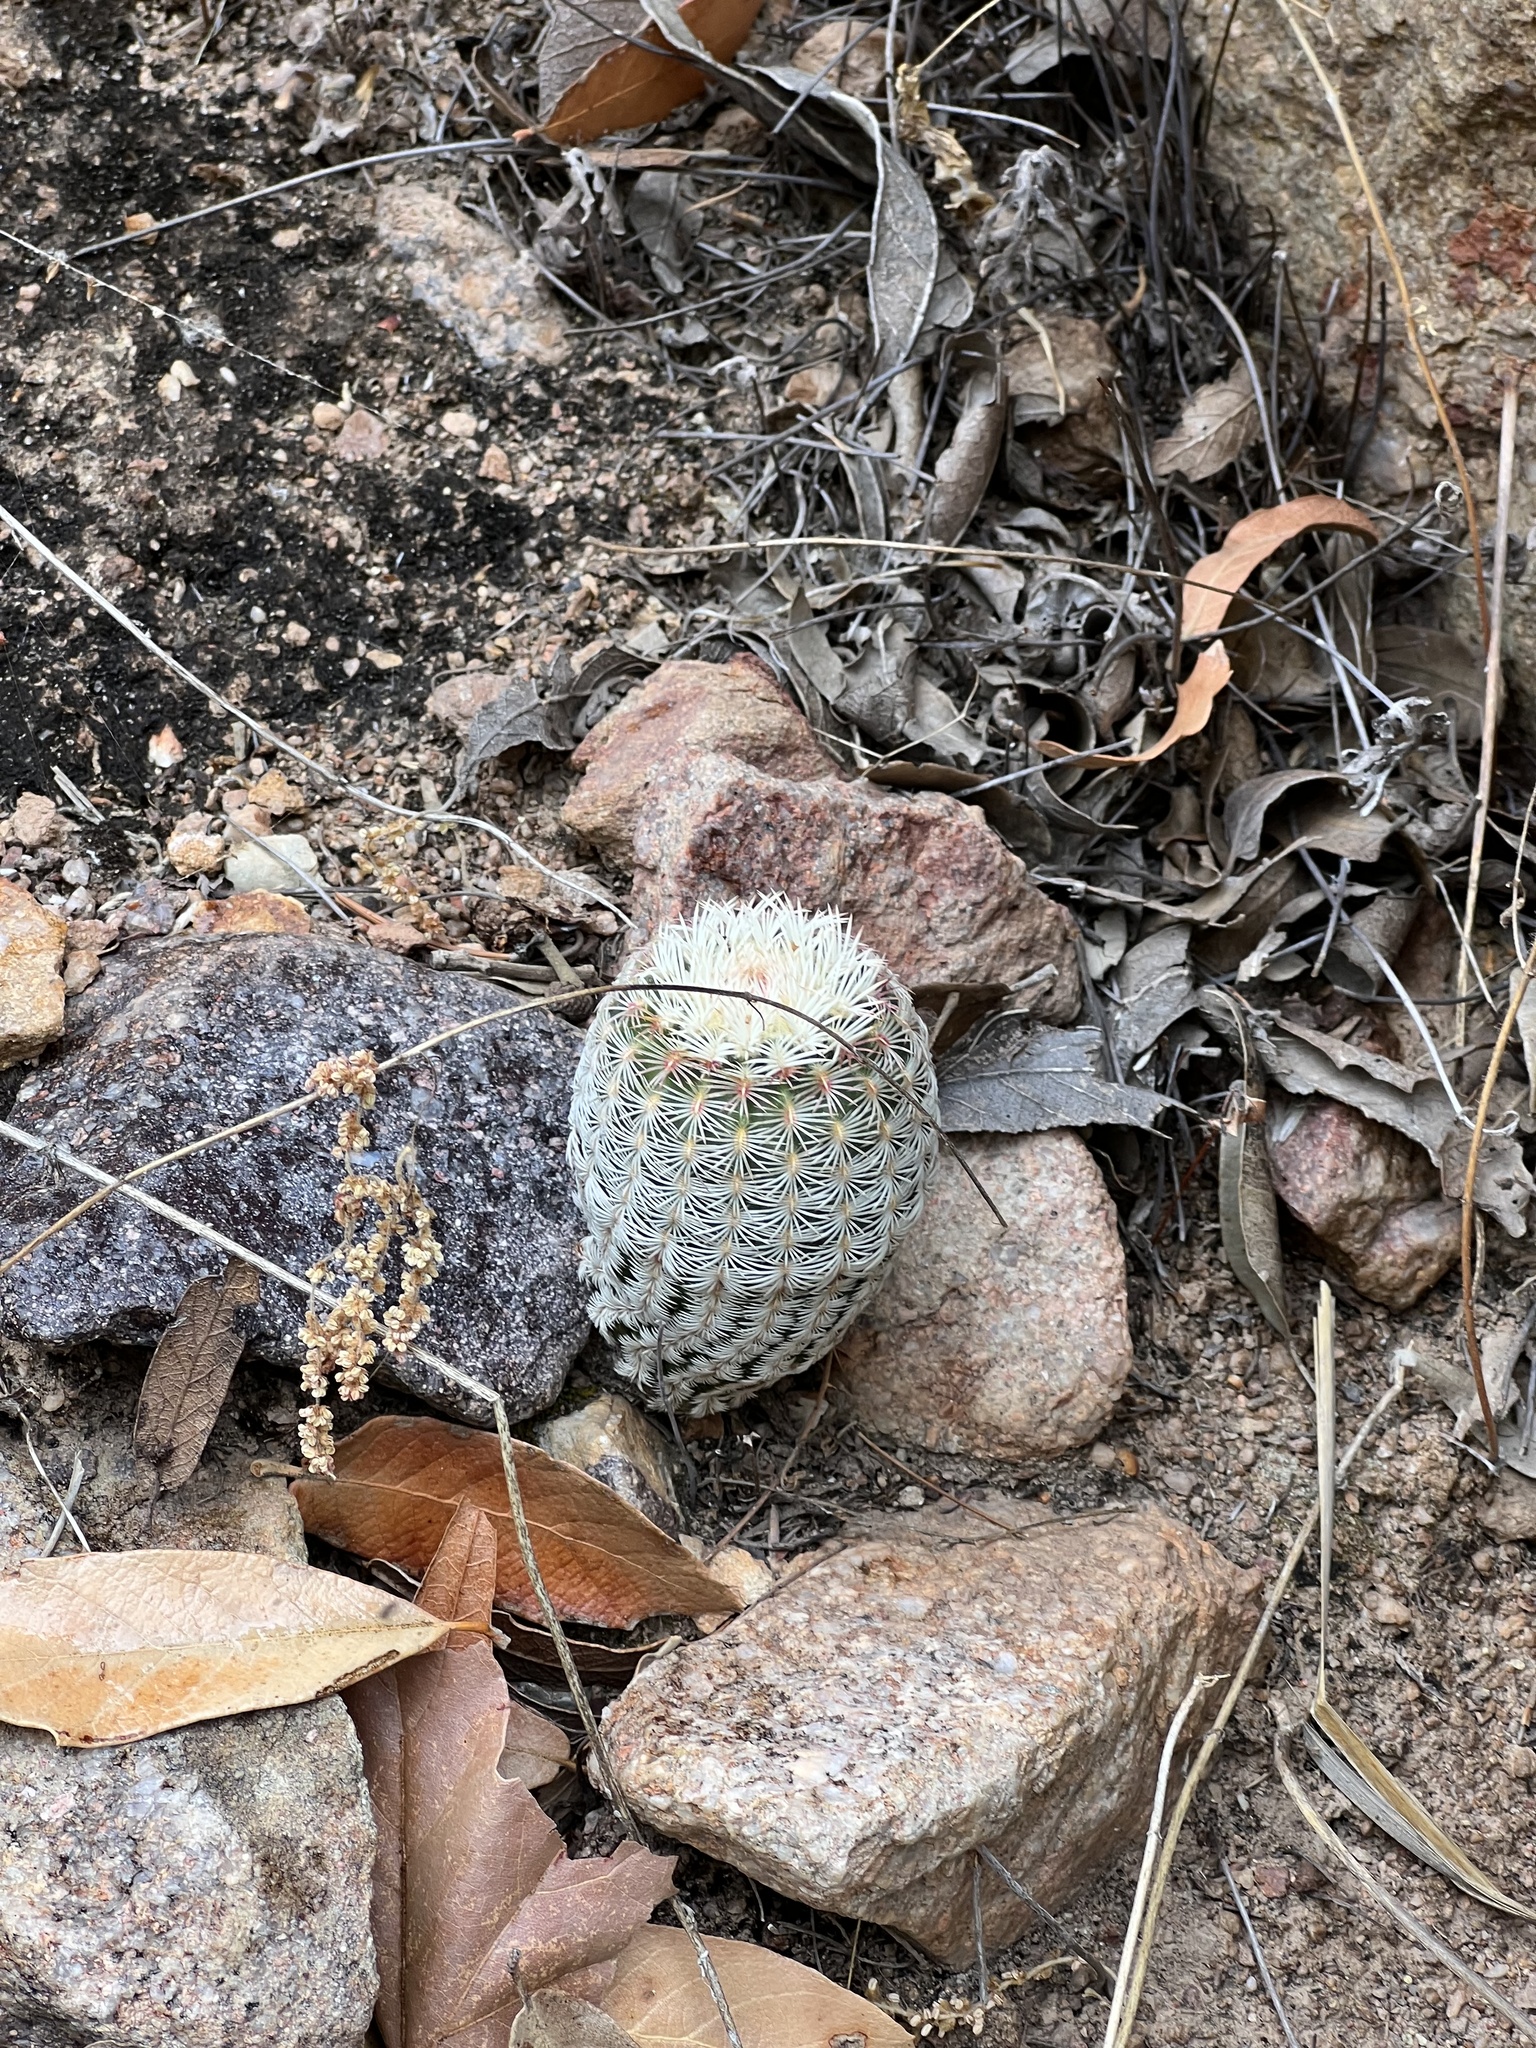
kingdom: Plantae
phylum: Tracheophyta
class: Magnoliopsida
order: Caryophyllales
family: Cactaceae
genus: Echinocereus
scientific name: Echinocereus rigidissimus
